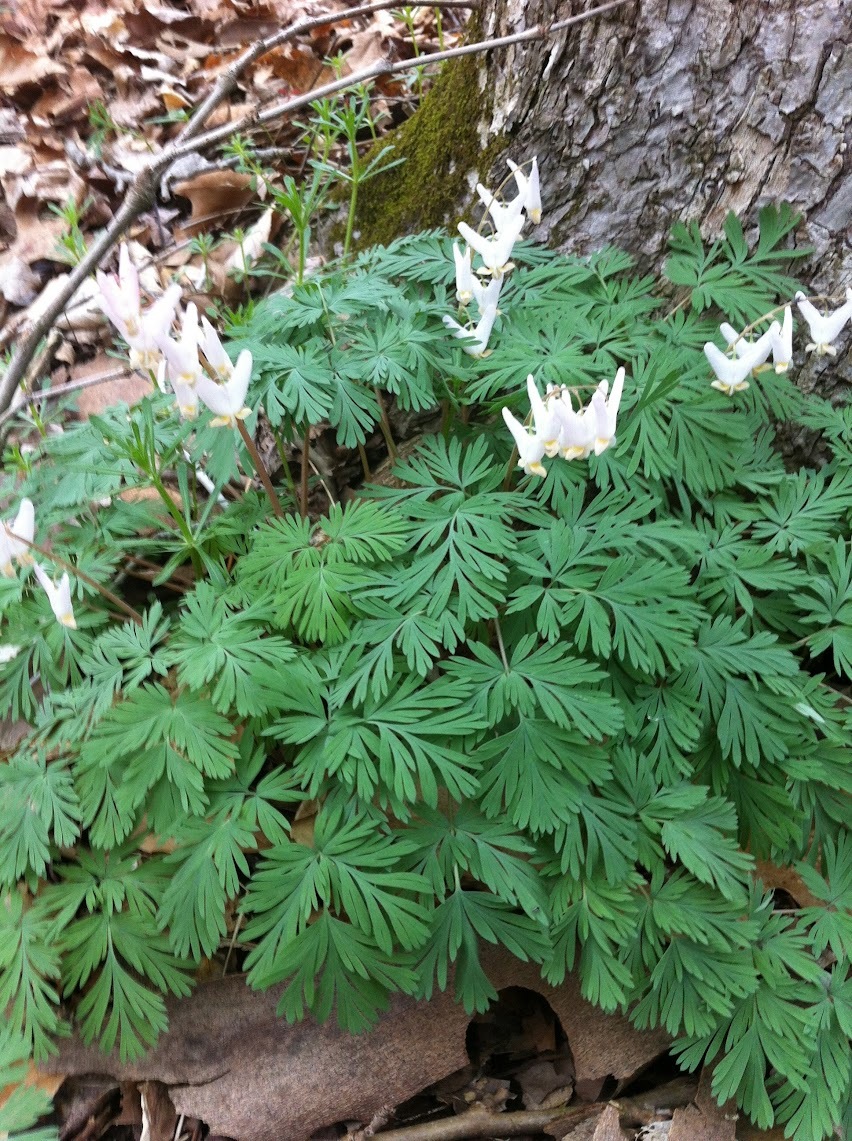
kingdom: Plantae
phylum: Tracheophyta
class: Magnoliopsida
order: Ranunculales
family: Papaveraceae
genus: Dicentra
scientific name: Dicentra cucullaria
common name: Dutchman's breeches
